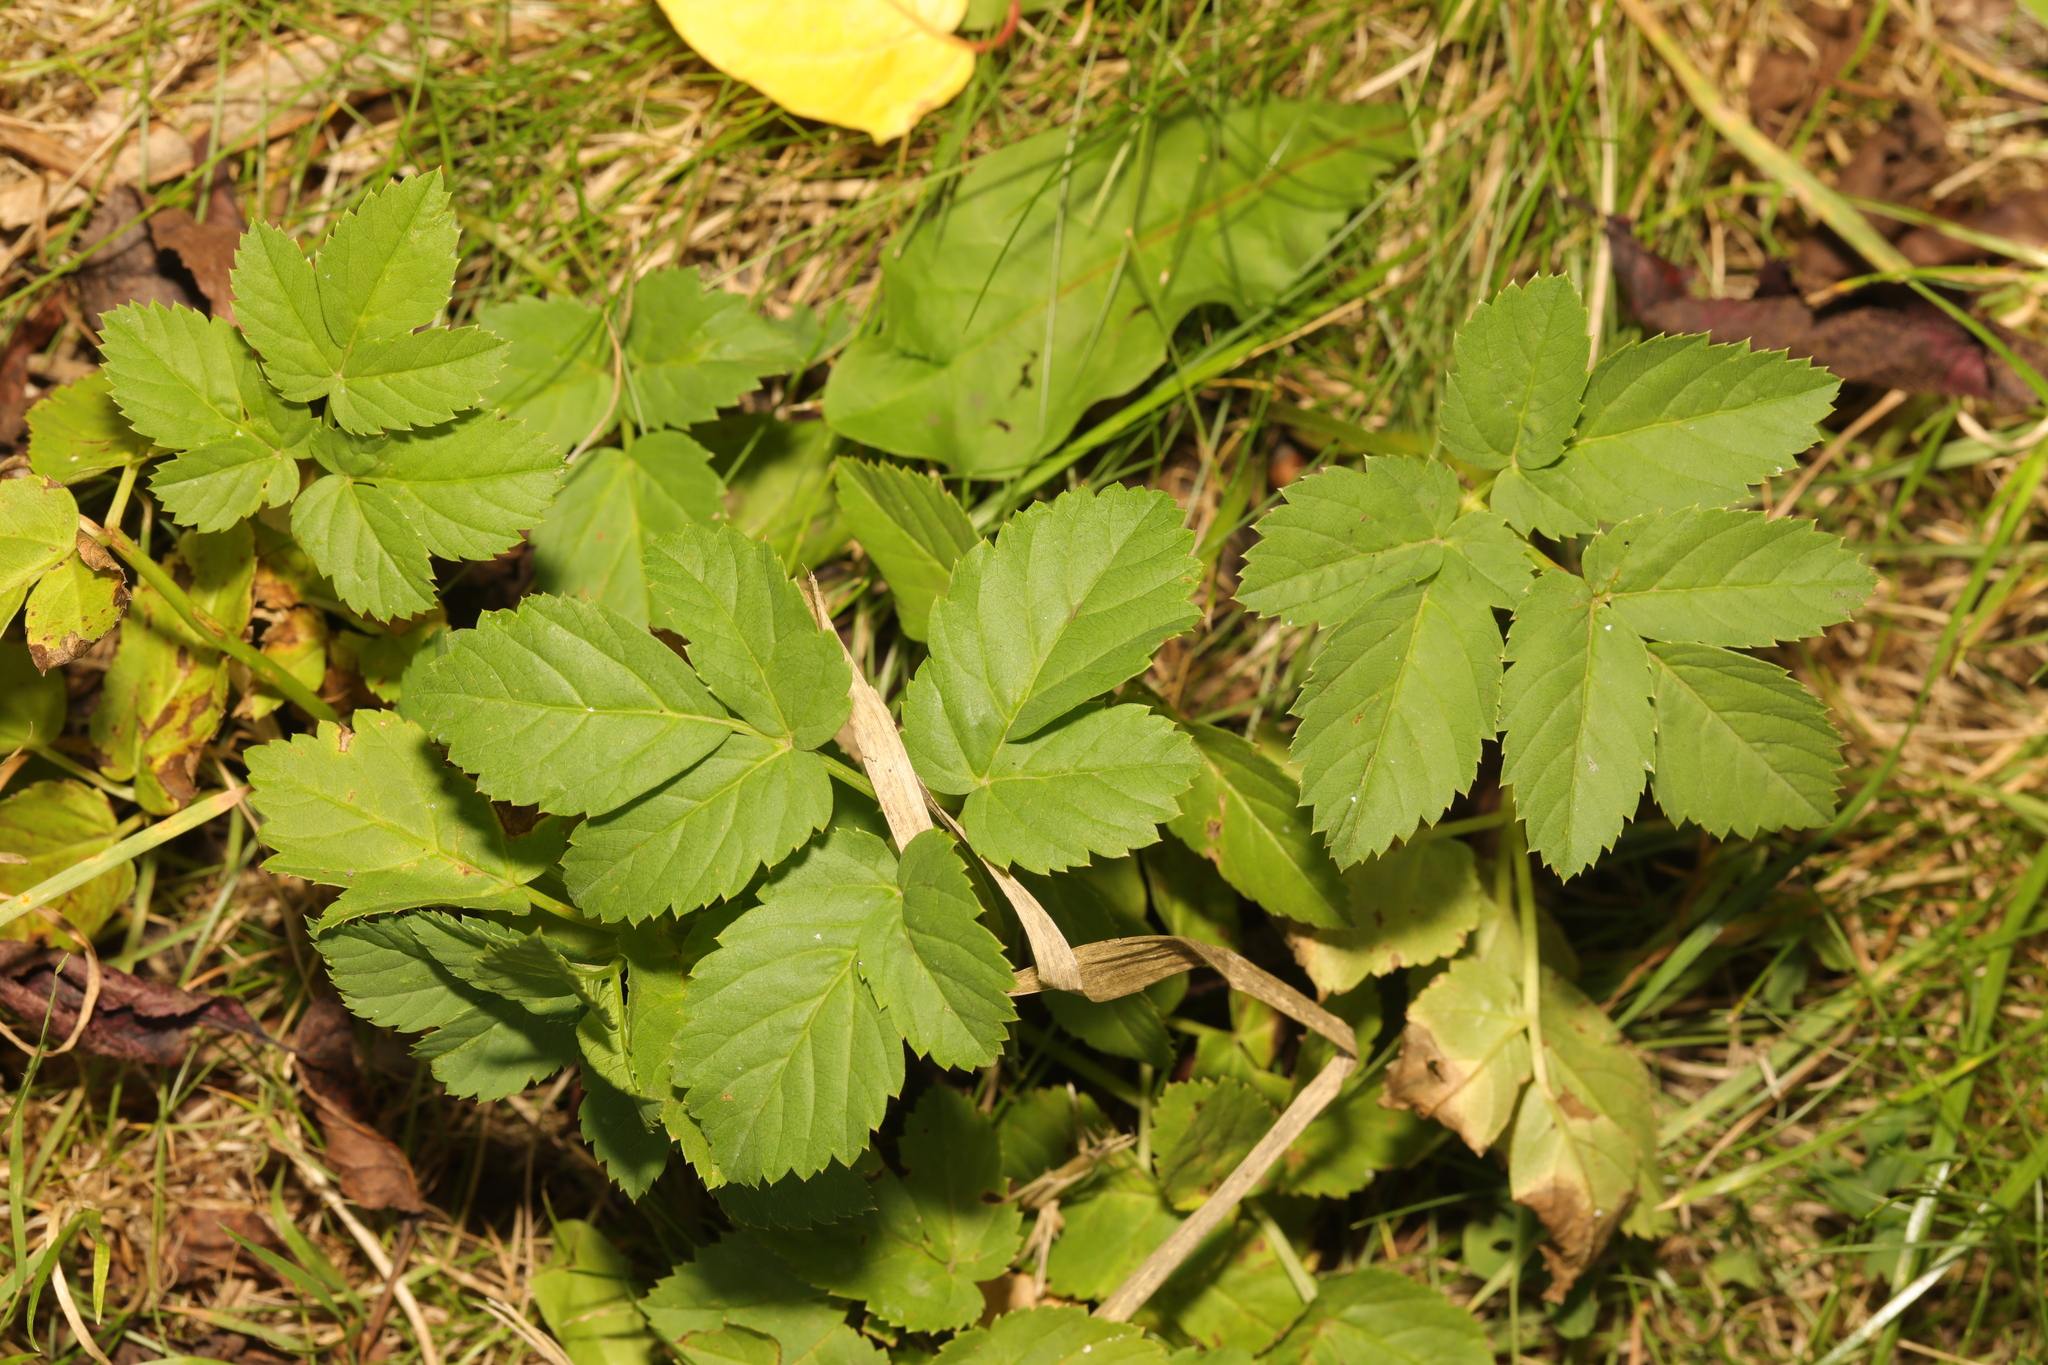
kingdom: Plantae
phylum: Tracheophyta
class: Magnoliopsida
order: Apiales
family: Apiaceae
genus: Aegopodium
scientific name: Aegopodium podagraria
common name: Ground-elder
